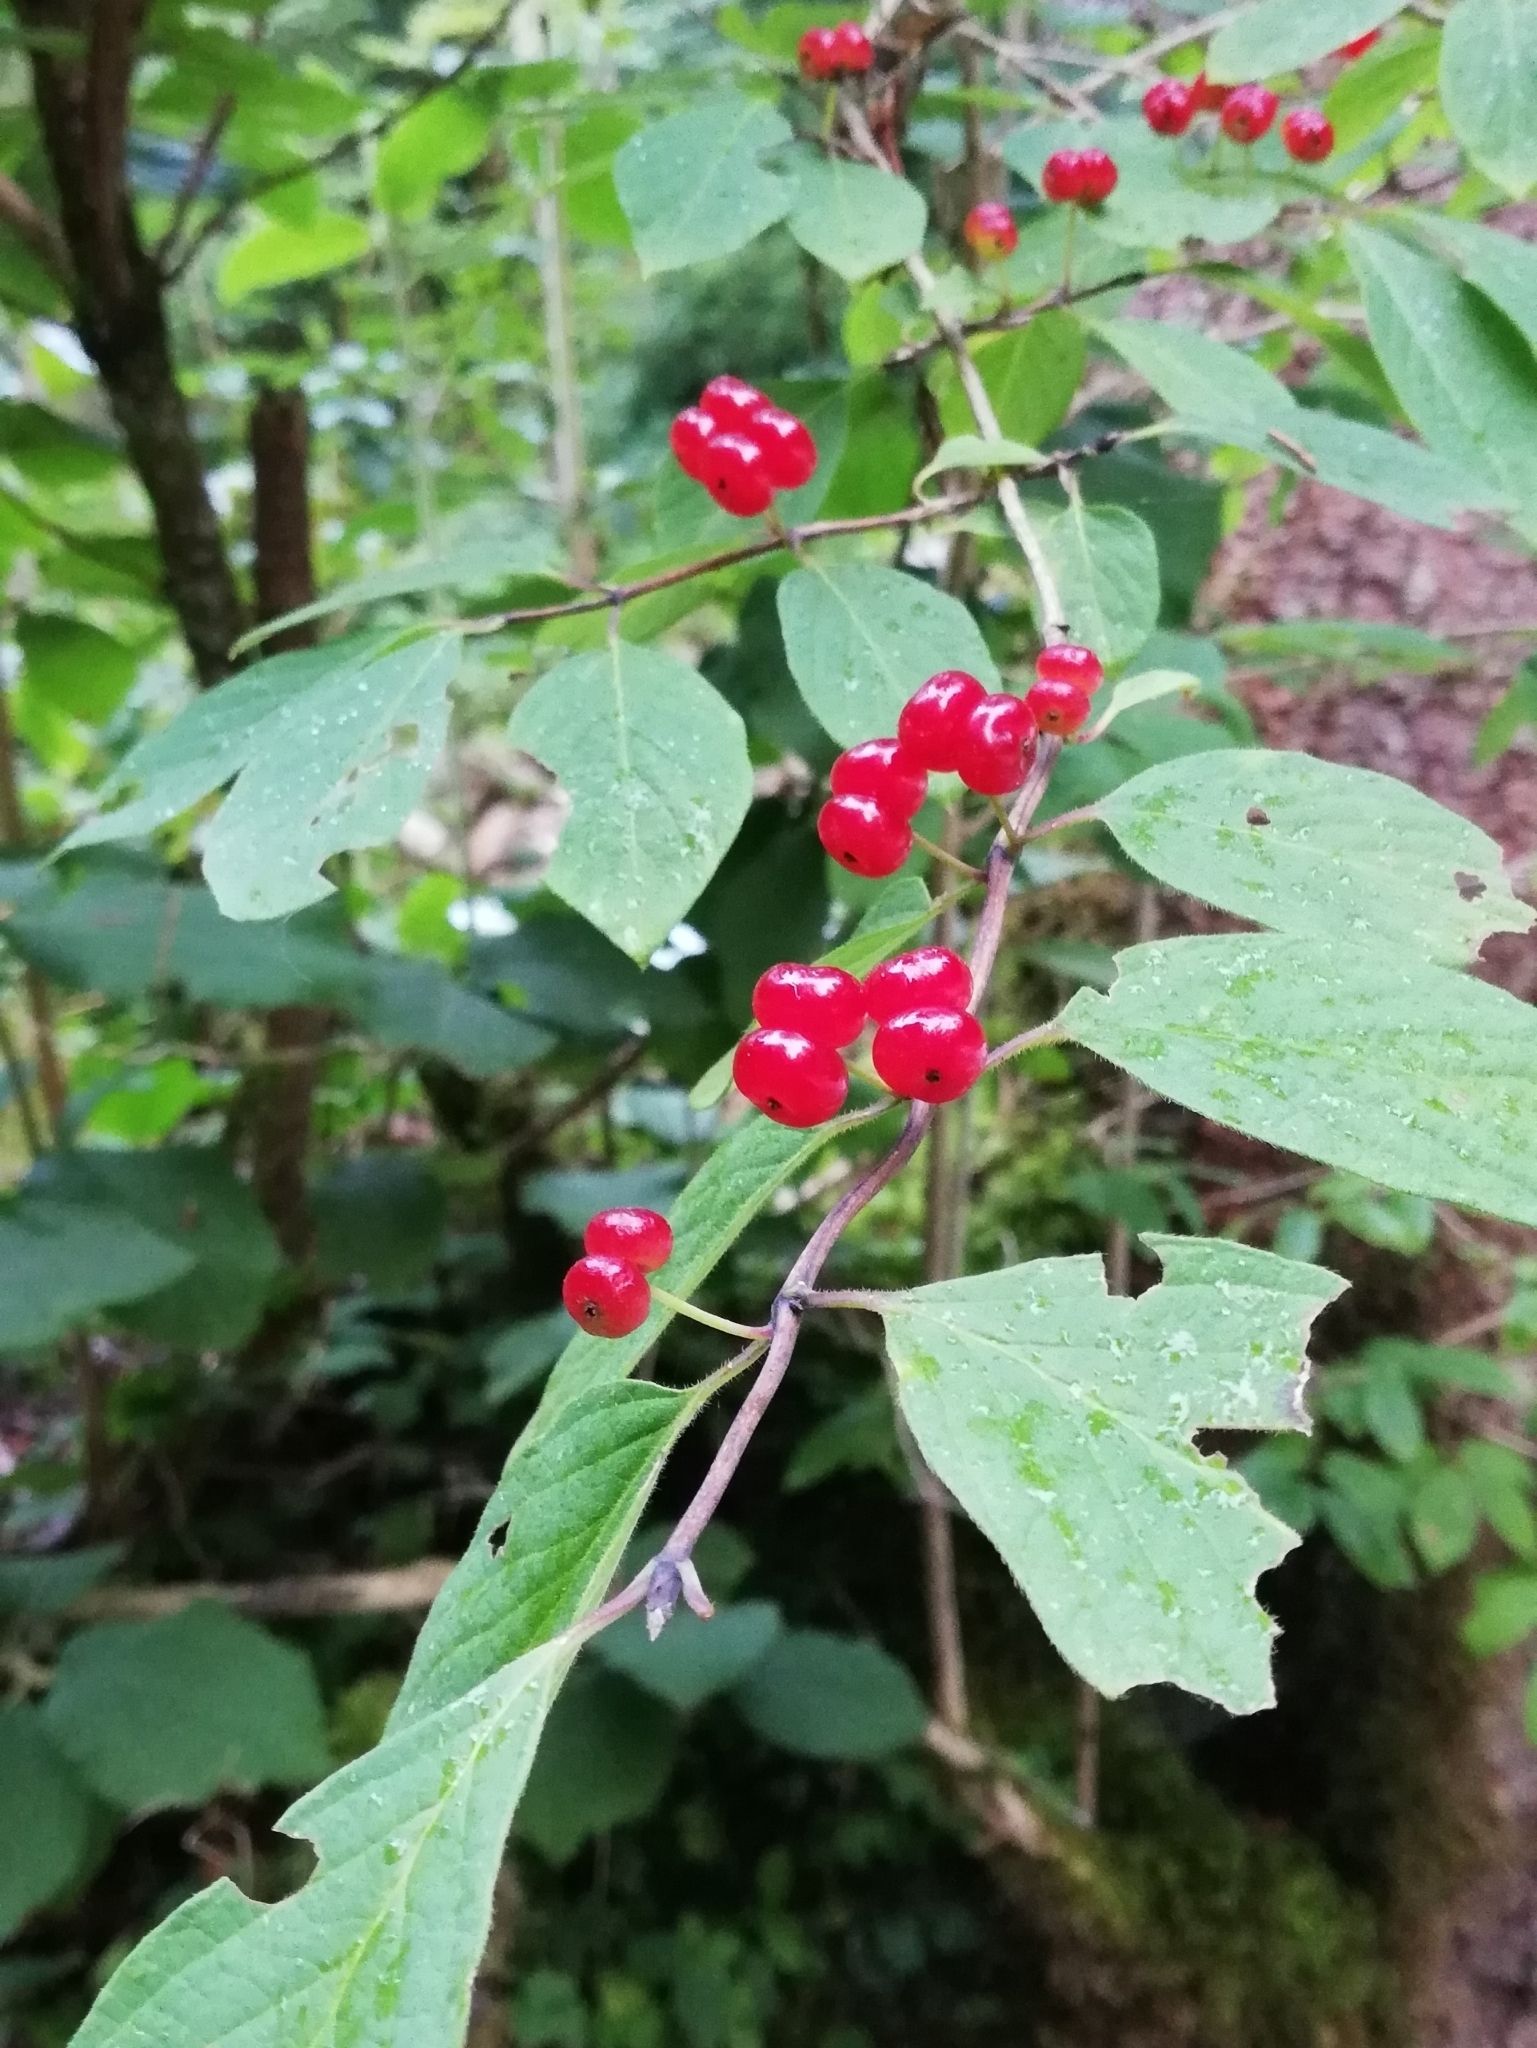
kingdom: Plantae
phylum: Tracheophyta
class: Magnoliopsida
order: Dipsacales
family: Caprifoliaceae
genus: Lonicera
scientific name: Lonicera xylosteum
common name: Fly honeysuckle
